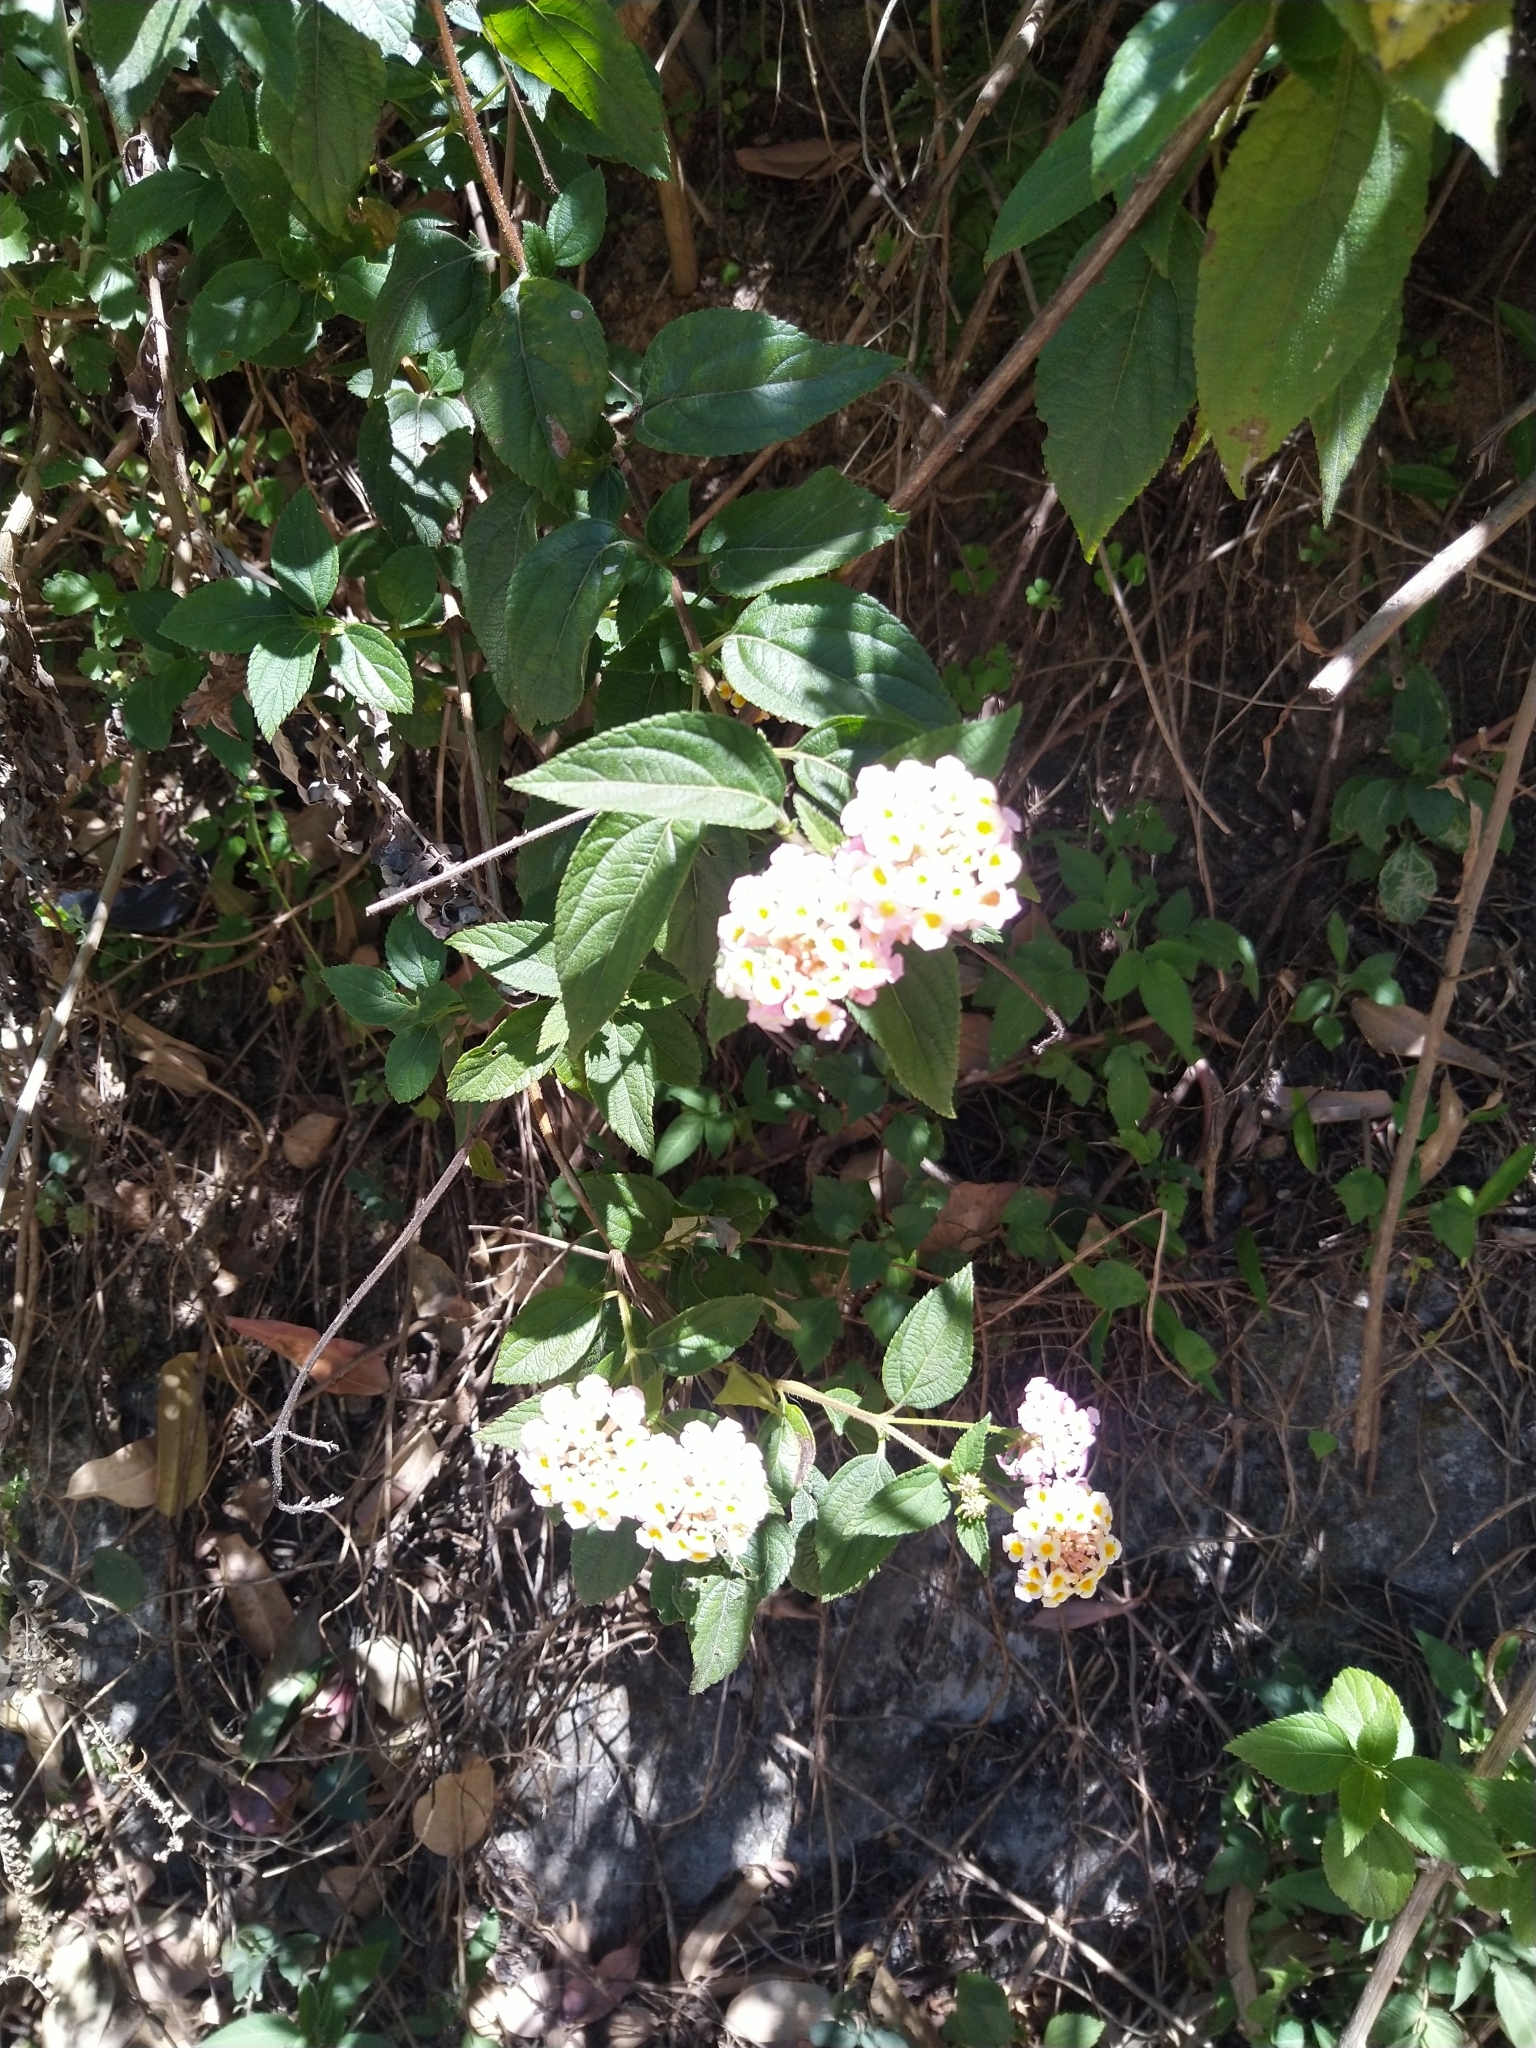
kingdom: Plantae
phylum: Tracheophyta
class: Magnoliopsida
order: Lamiales
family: Verbenaceae
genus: Lantana
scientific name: Lantana camara
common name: Lantana
